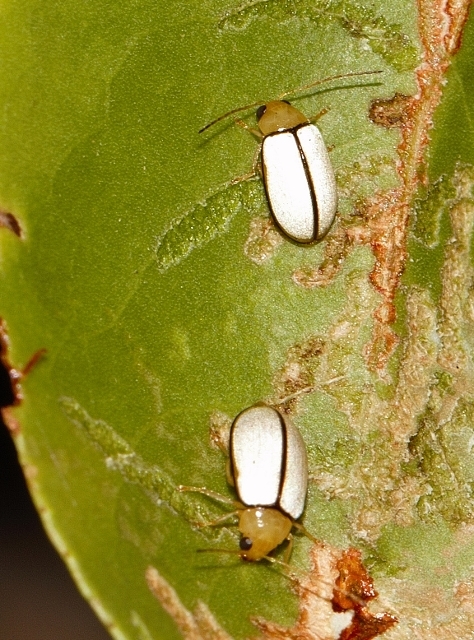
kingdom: Animalia
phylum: Arthropoda
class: Insecta
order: Coleoptera
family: Chrysomelidae
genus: Panafrolepta
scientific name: Panafrolepta
